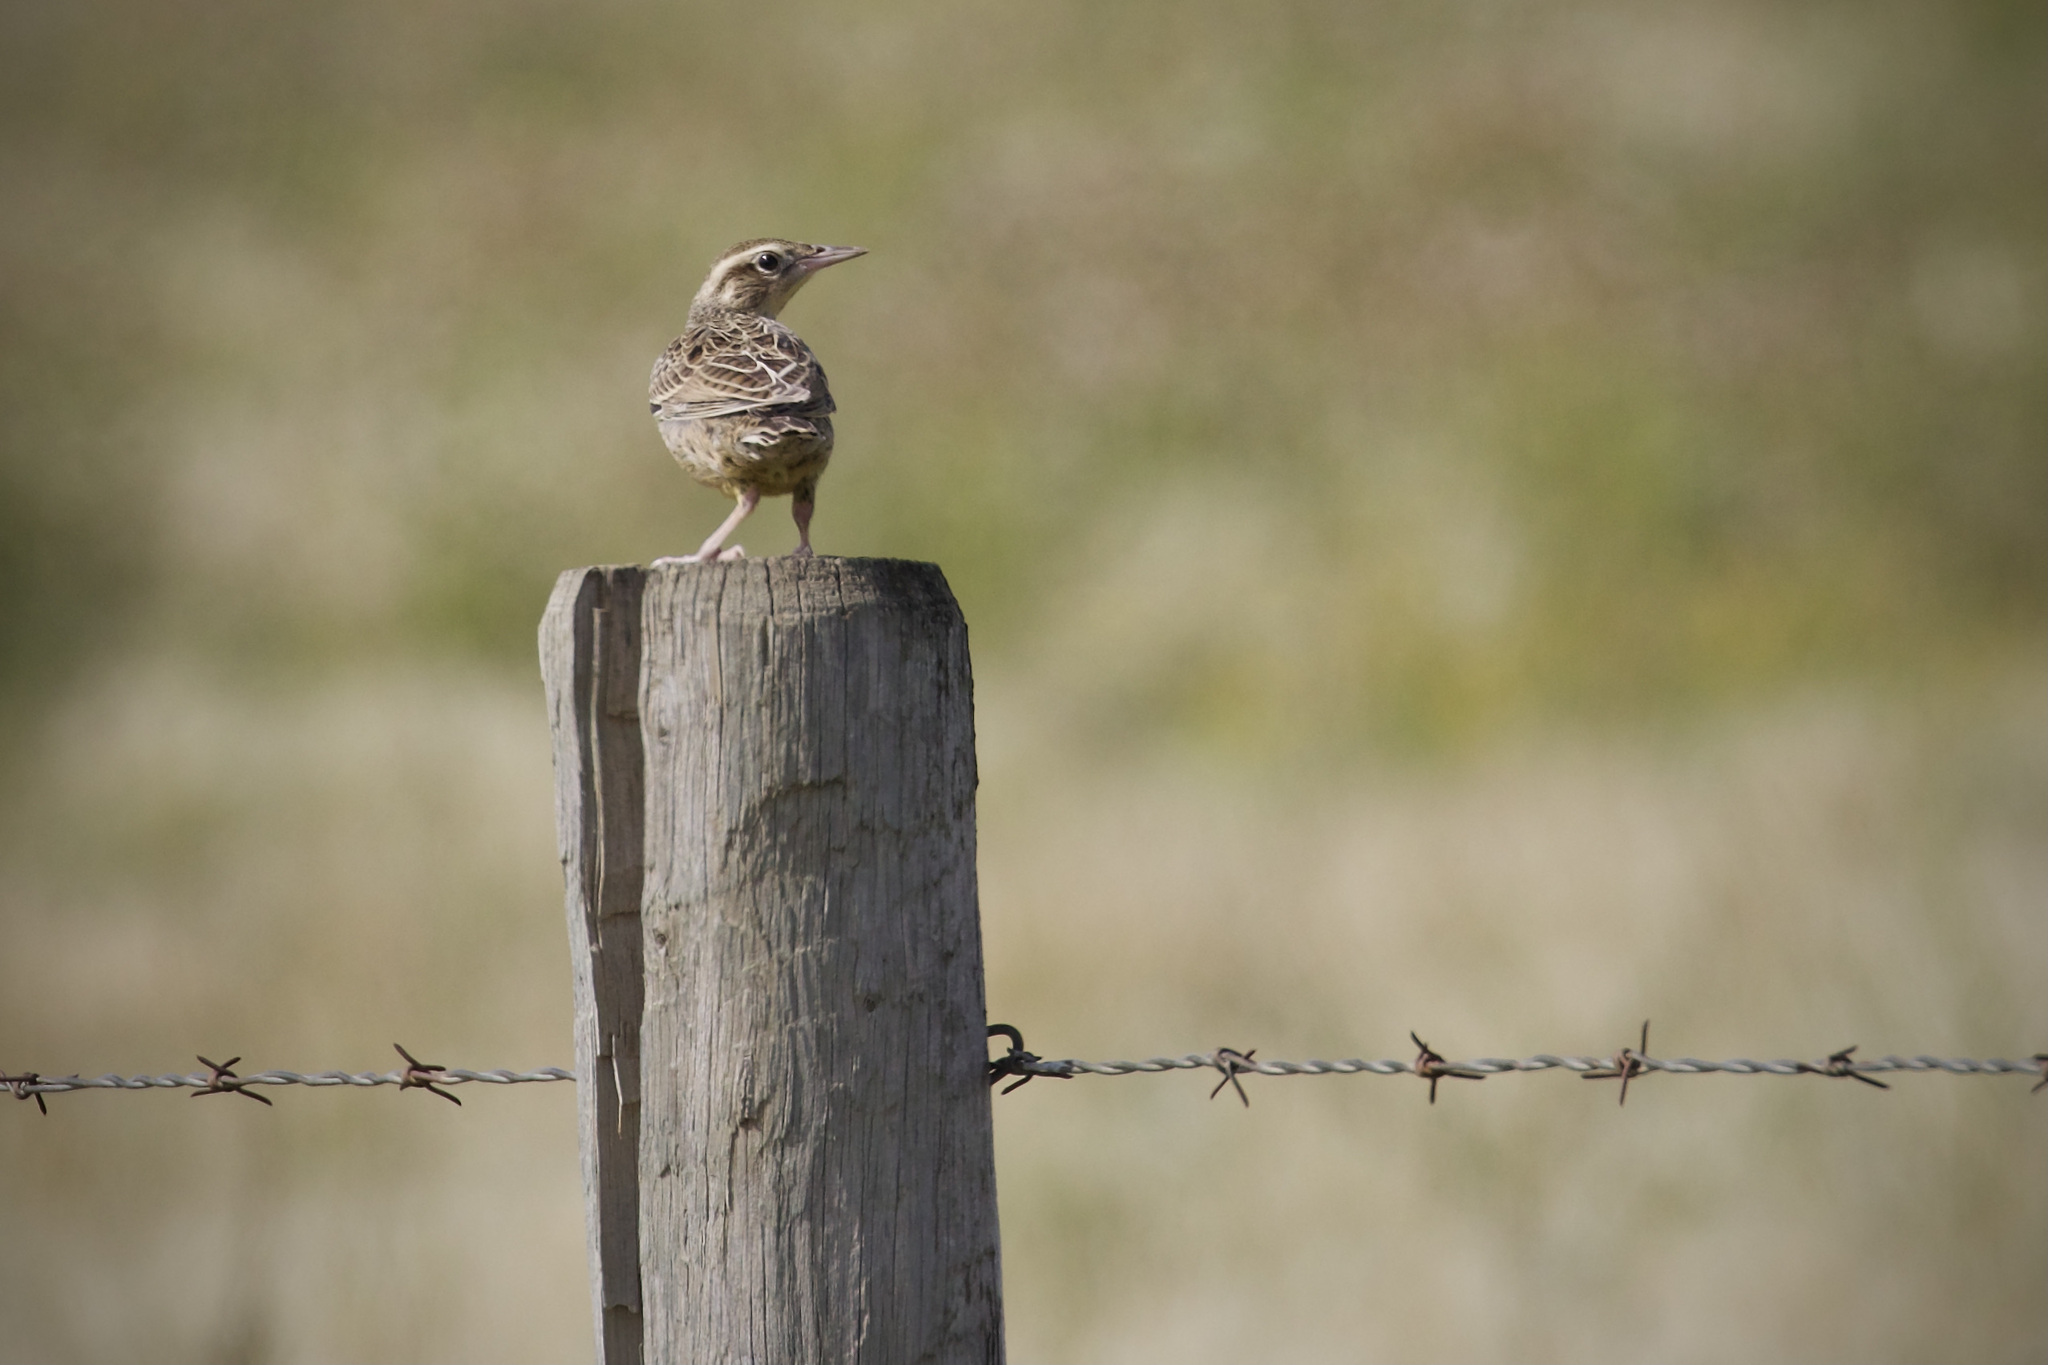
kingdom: Animalia
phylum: Chordata
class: Aves
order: Passeriformes
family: Icteridae
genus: Sturnella
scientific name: Sturnella neglecta
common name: Western meadowlark
